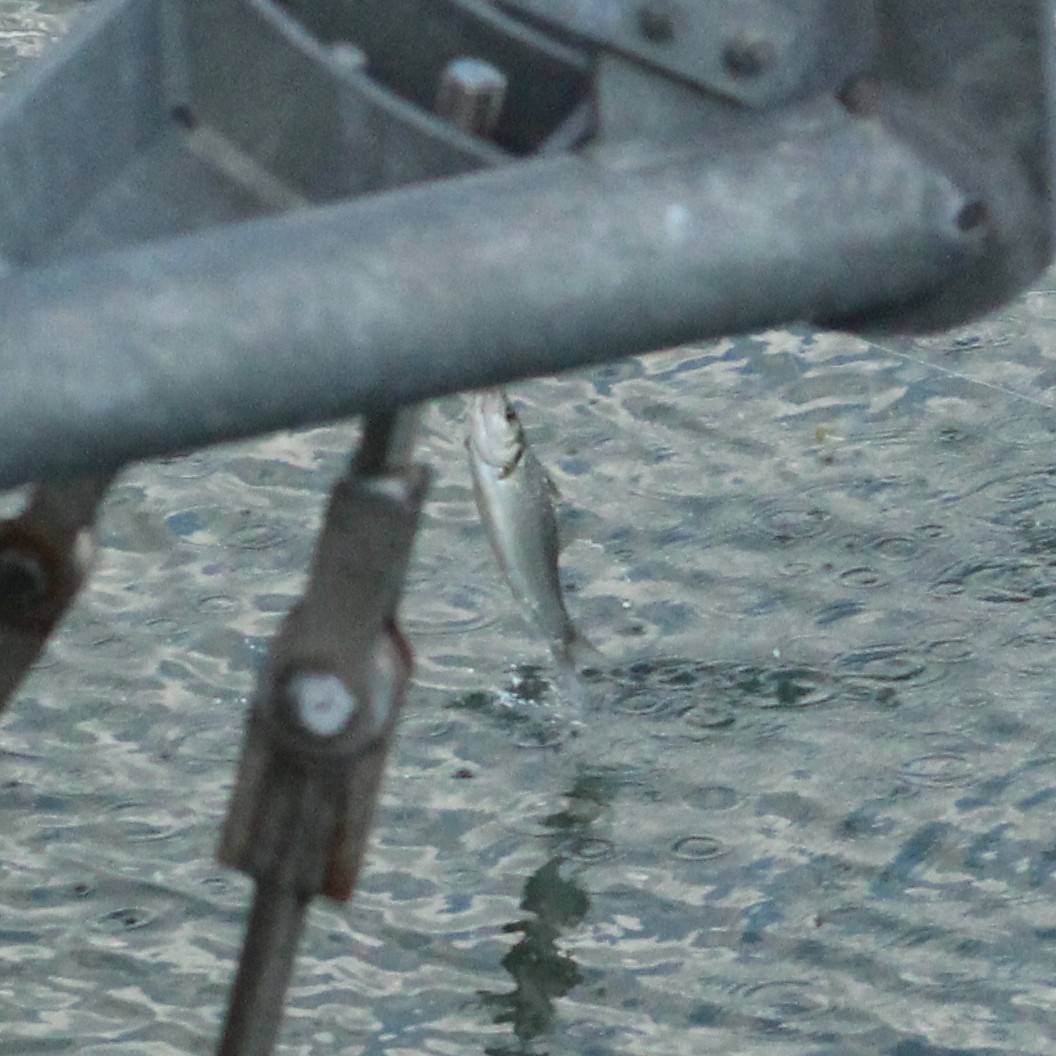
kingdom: Animalia
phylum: Chordata
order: Perciformes
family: Moronidae
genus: Dicentrarchus
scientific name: Dicentrarchus labrax
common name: European seabass
